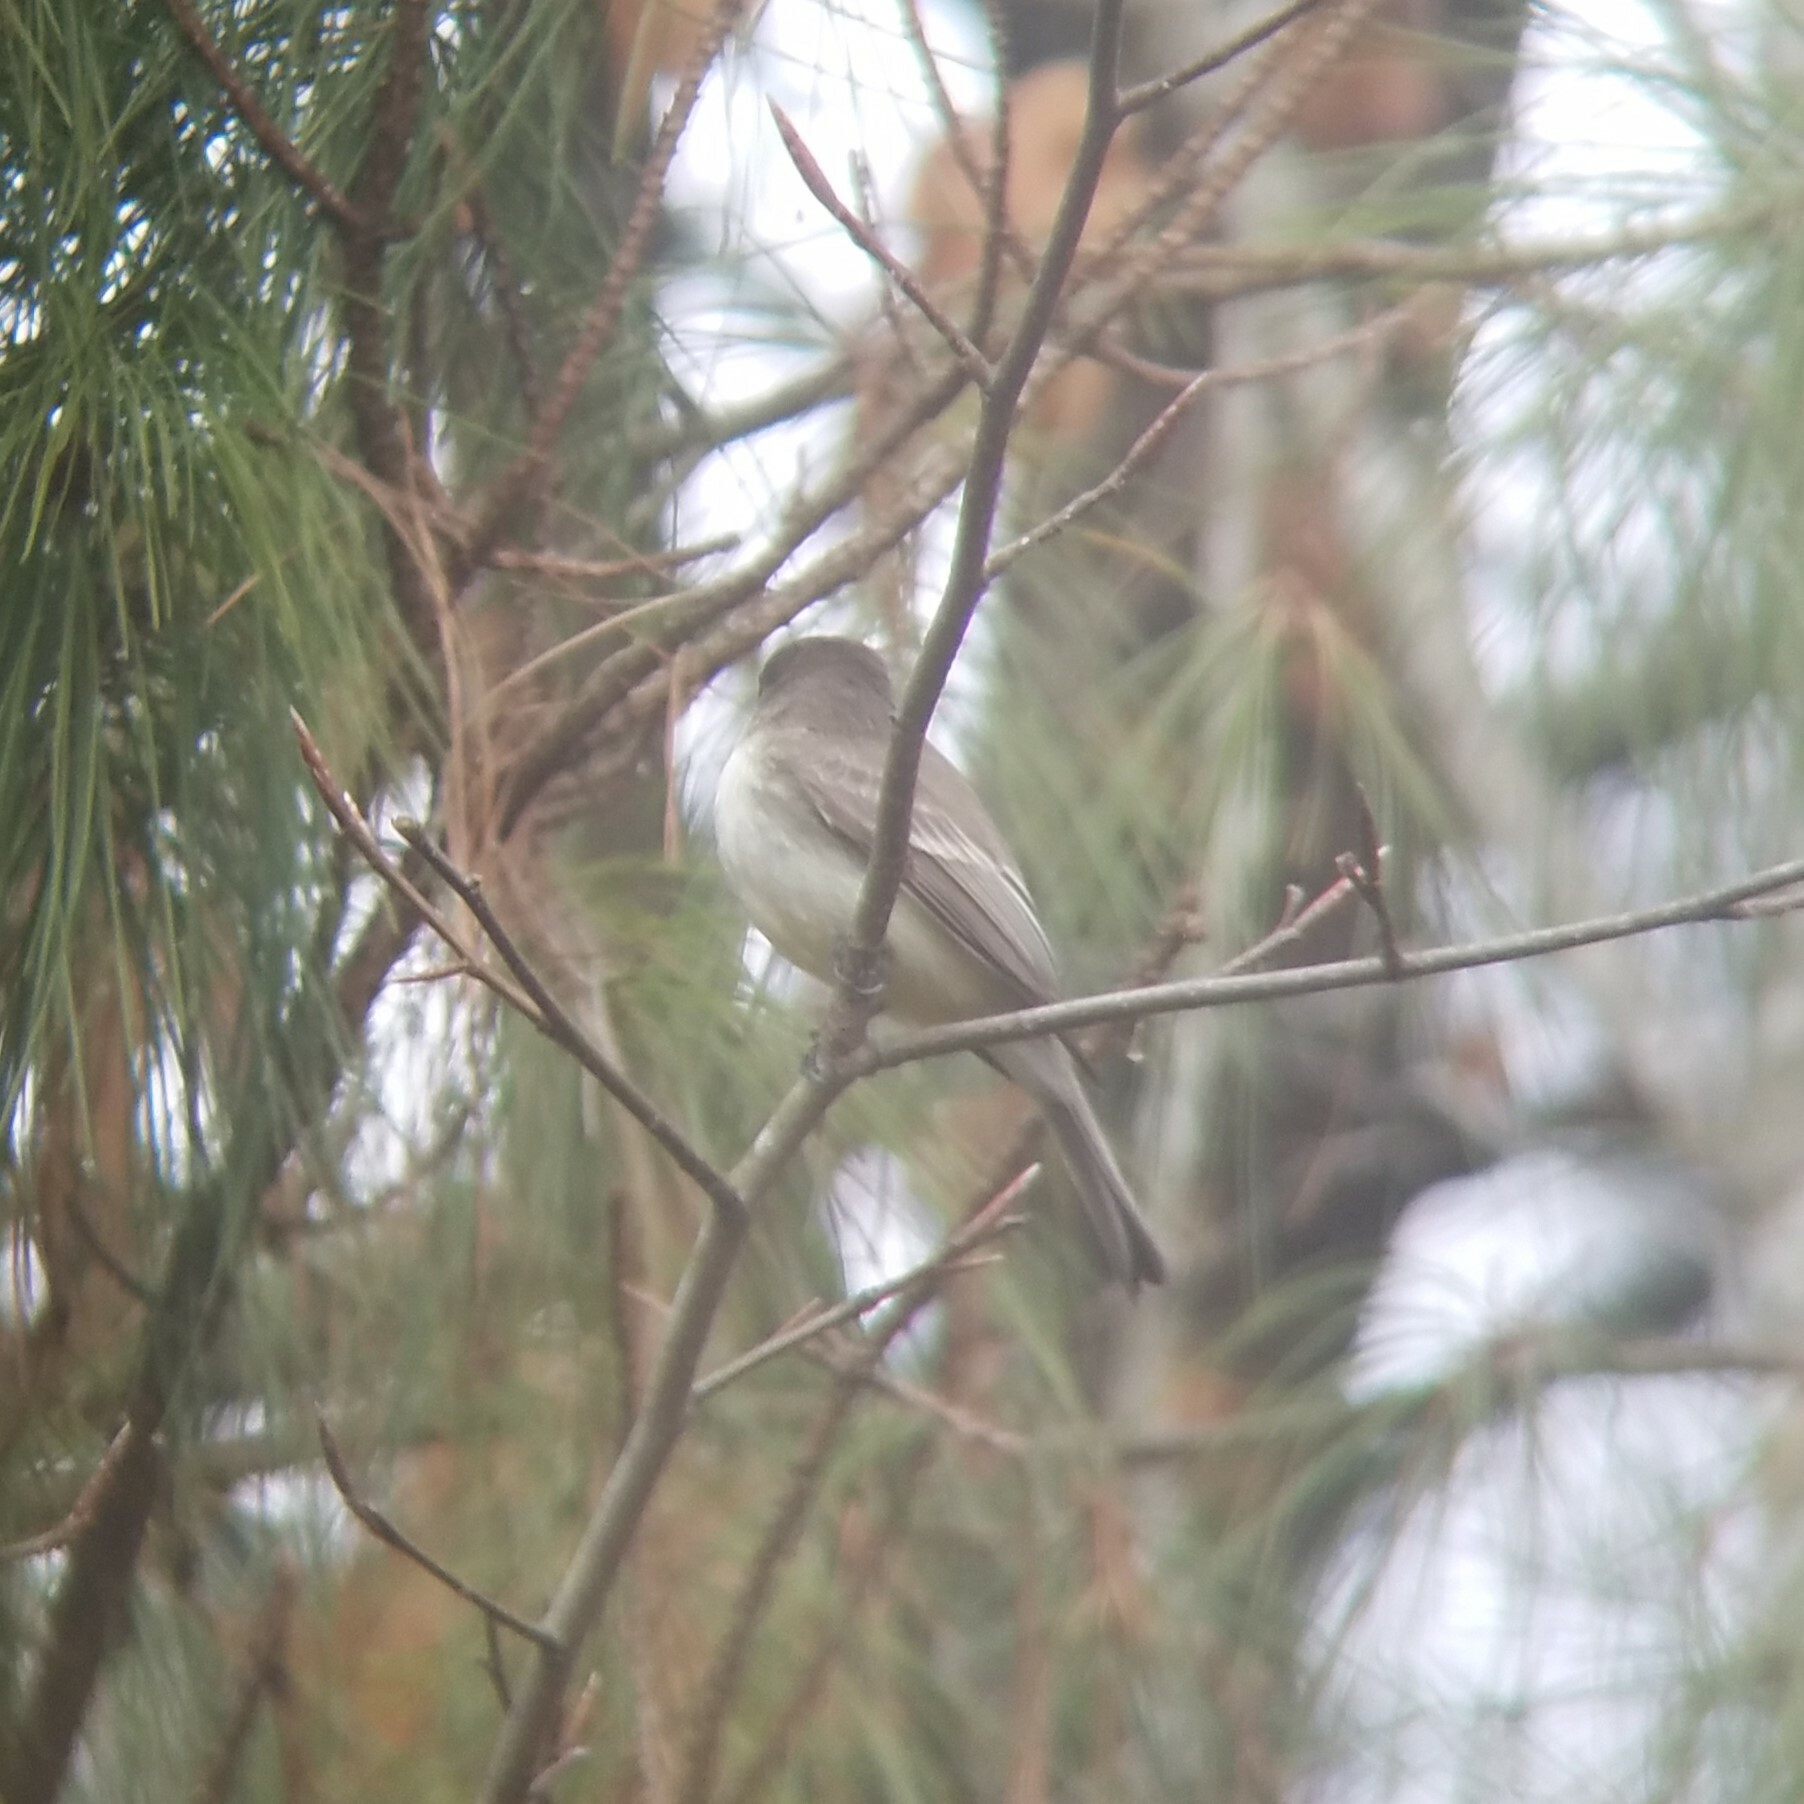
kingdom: Animalia
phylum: Chordata
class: Aves
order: Passeriformes
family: Tyrannidae
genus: Sayornis
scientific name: Sayornis phoebe
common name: Eastern phoebe
